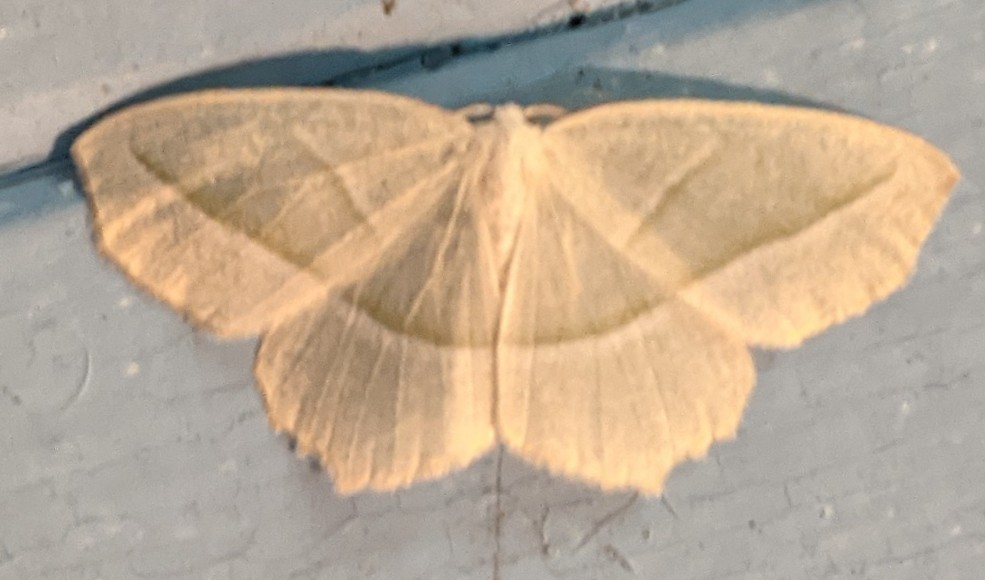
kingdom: Animalia
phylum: Arthropoda
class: Insecta
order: Lepidoptera
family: Geometridae
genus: Campaea
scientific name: Campaea perlata
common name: Fringed looper
